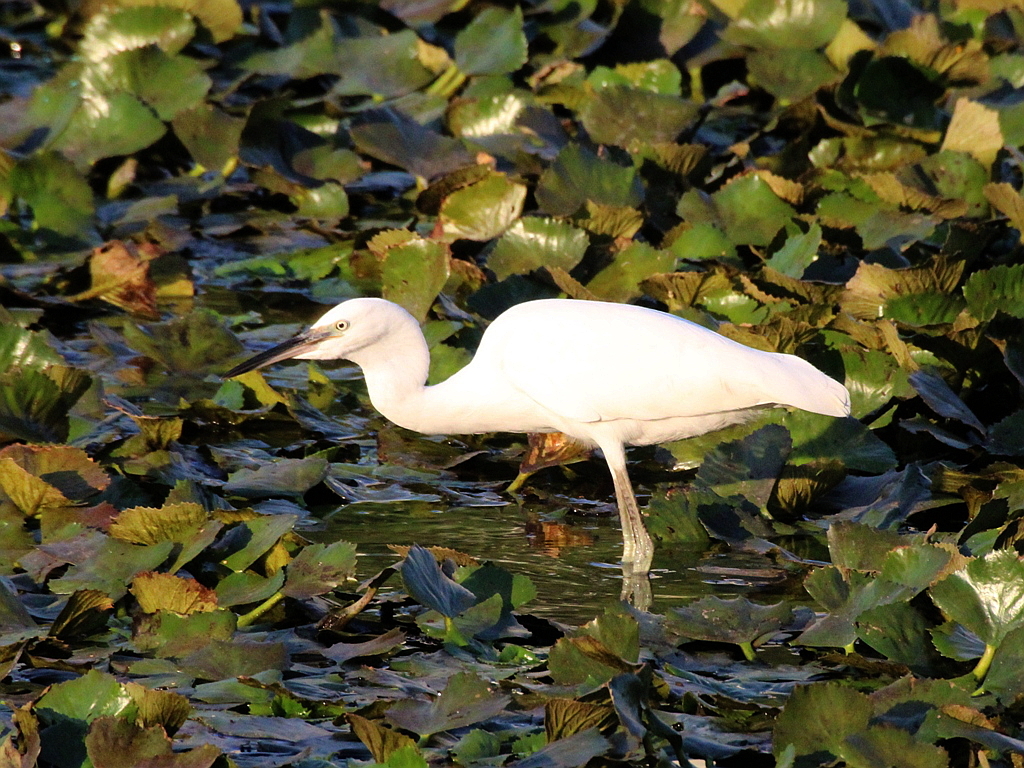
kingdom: Animalia
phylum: Chordata
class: Aves
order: Pelecaniformes
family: Ardeidae
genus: Egretta
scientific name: Egretta garzetta
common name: Little egret
